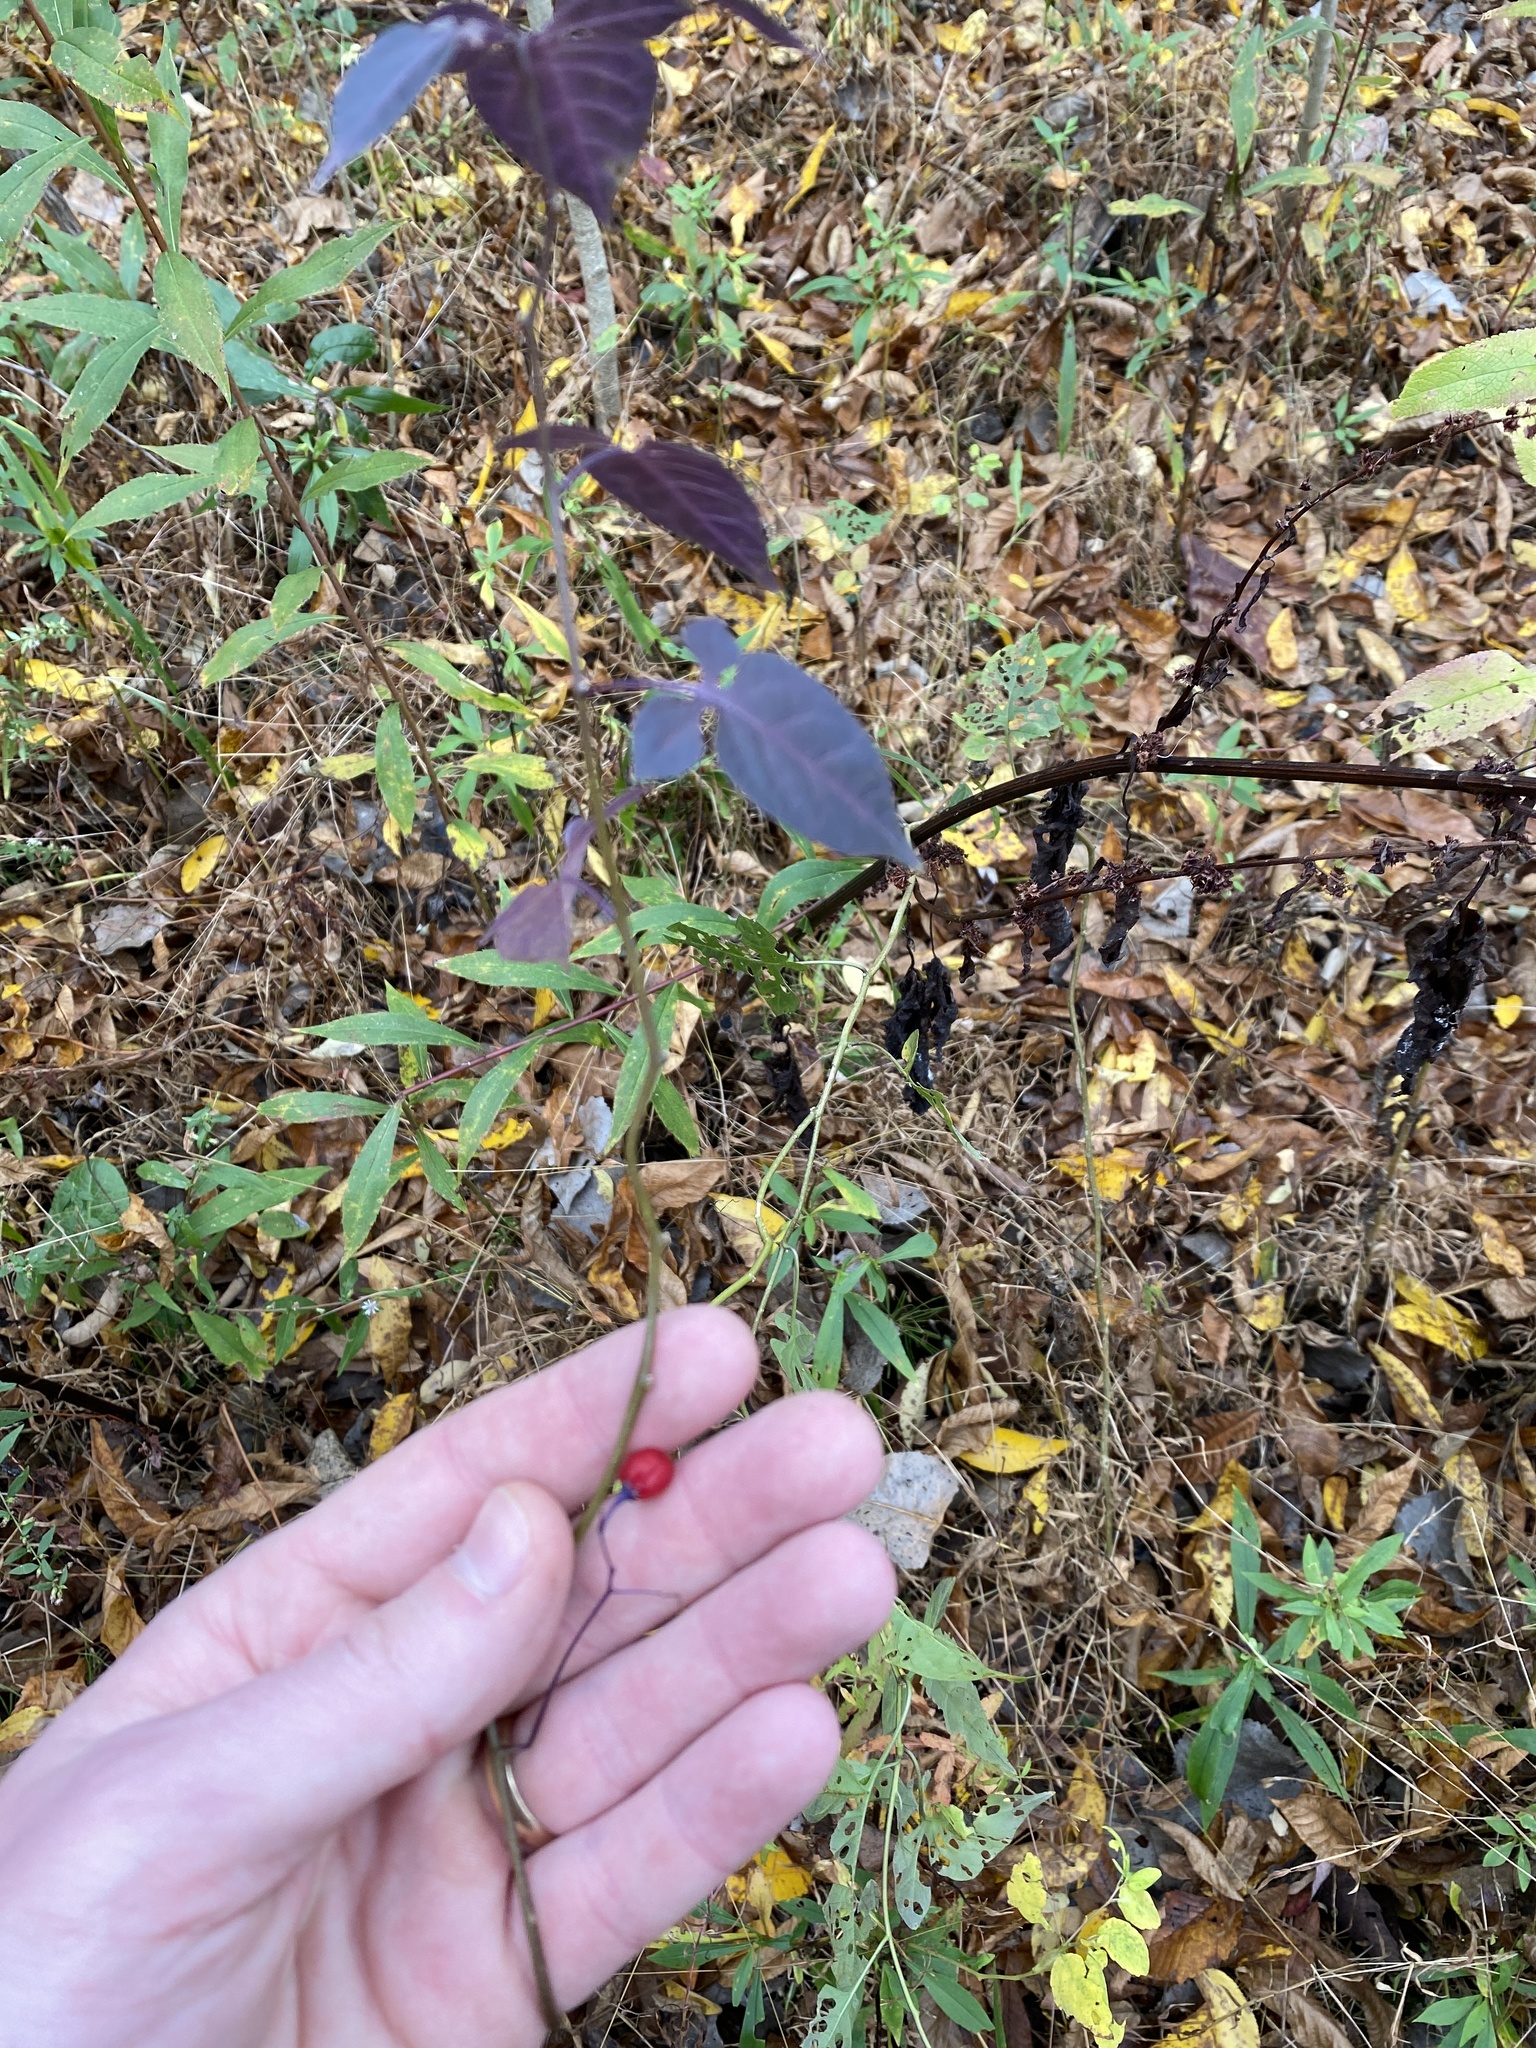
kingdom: Plantae
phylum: Tracheophyta
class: Magnoliopsida
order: Solanales
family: Solanaceae
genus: Solanum
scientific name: Solanum dulcamara
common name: Climbing nightshade
